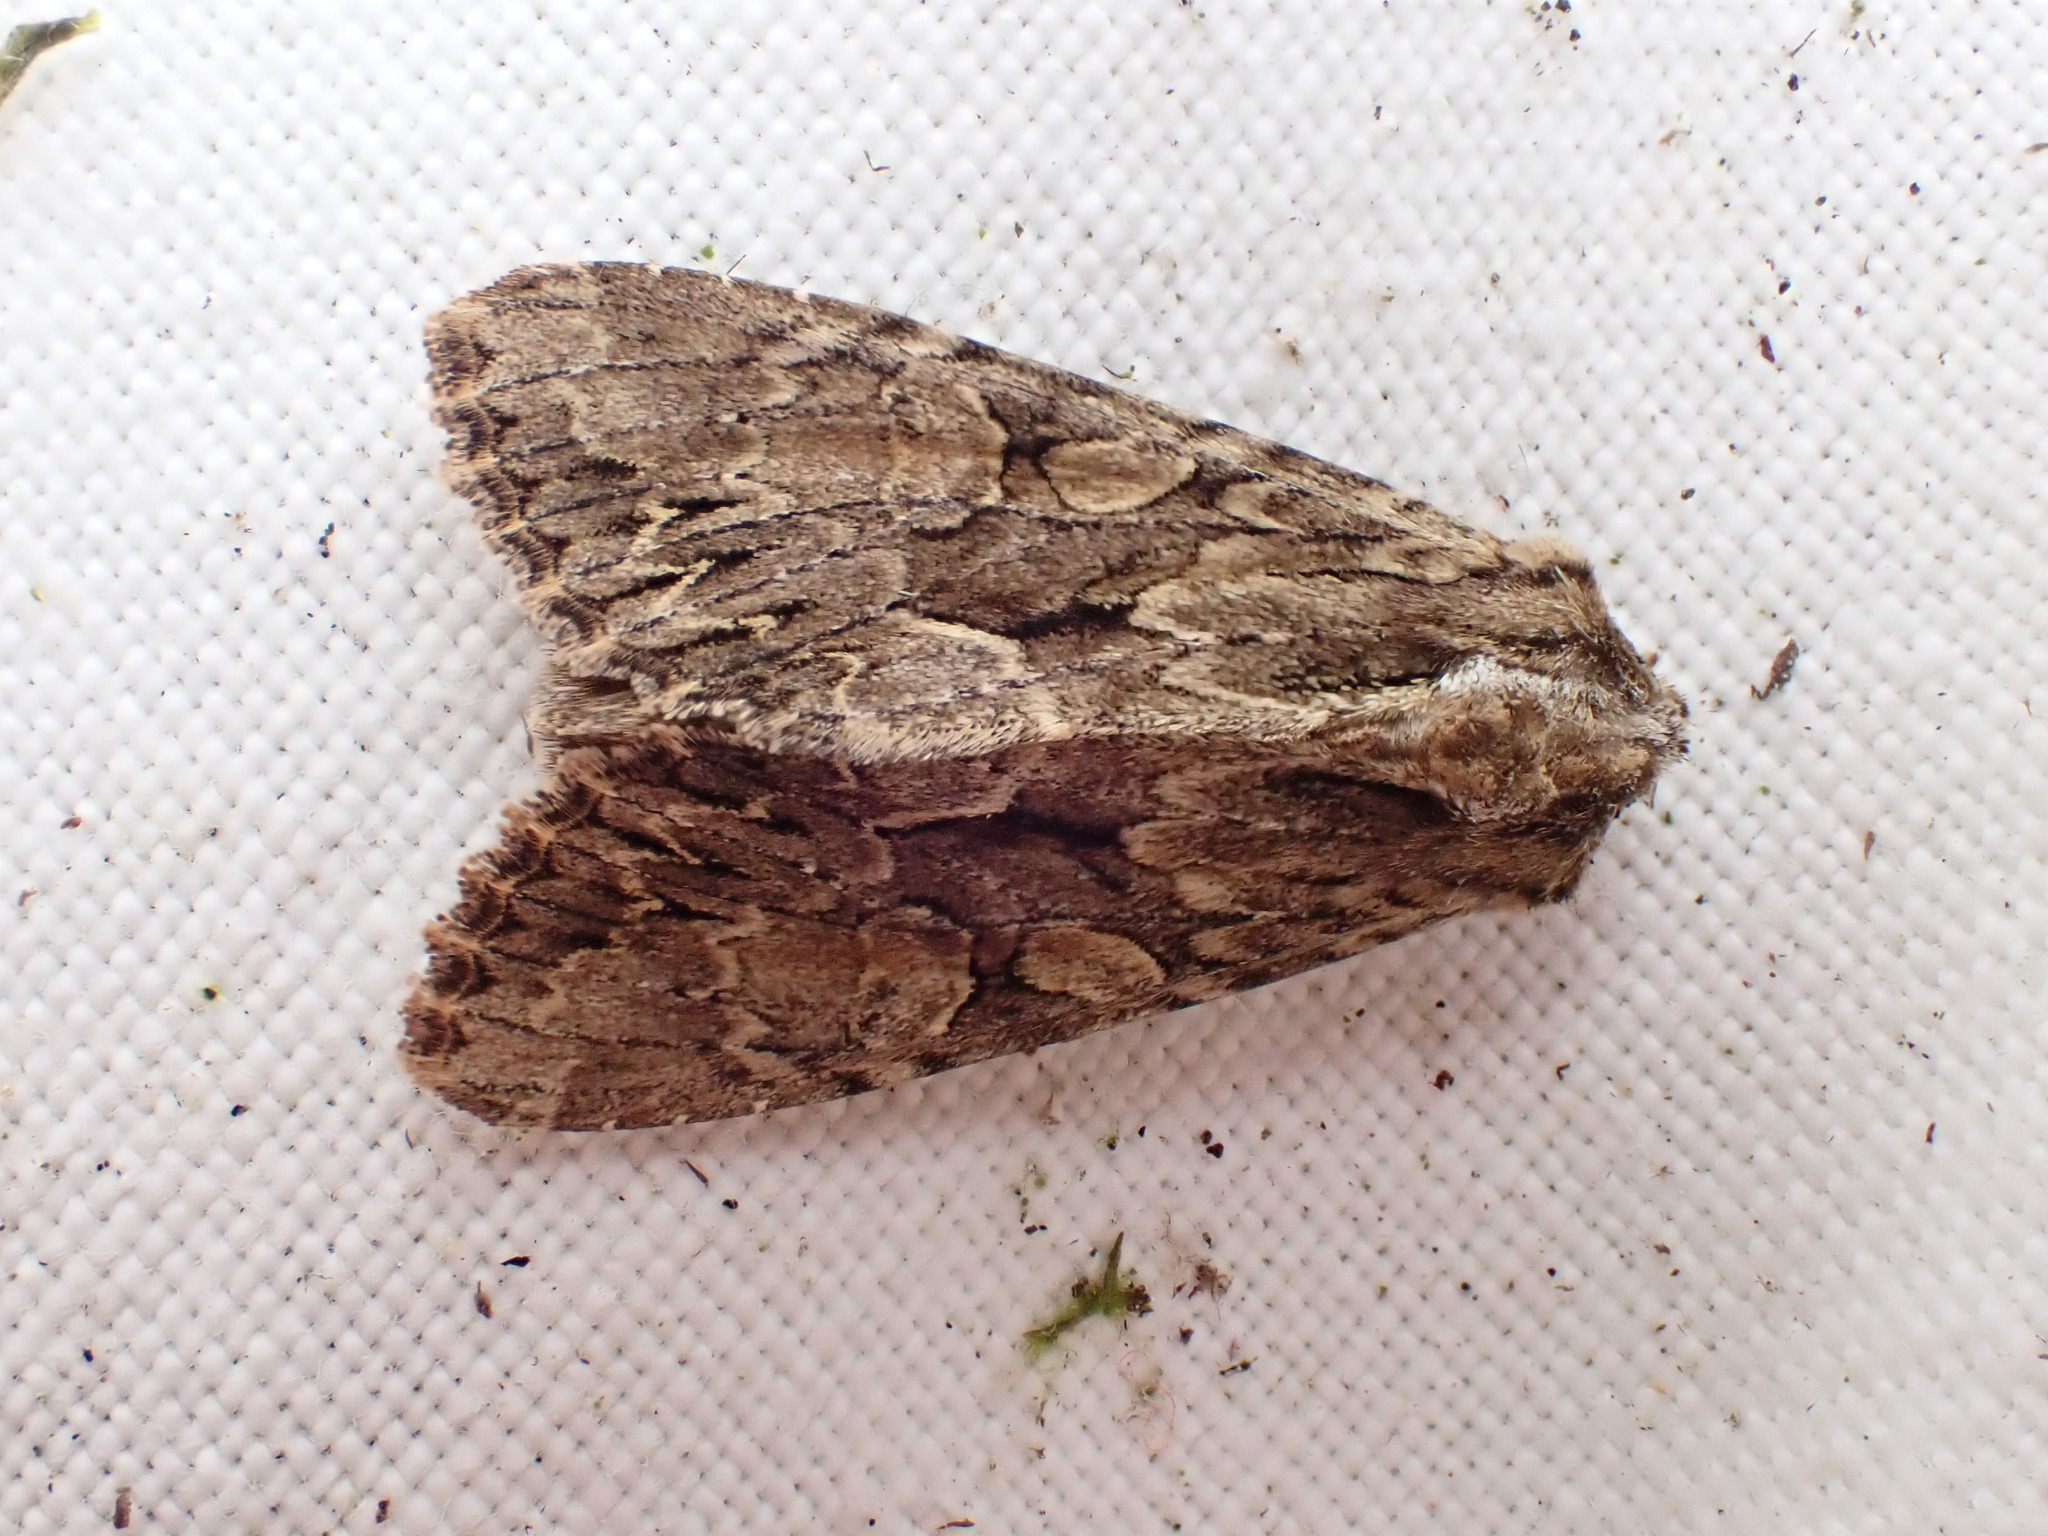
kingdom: Animalia
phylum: Arthropoda
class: Insecta
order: Lepidoptera
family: Noctuidae
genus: Apamea
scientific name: Apamea monoglypha
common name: Dark arches
